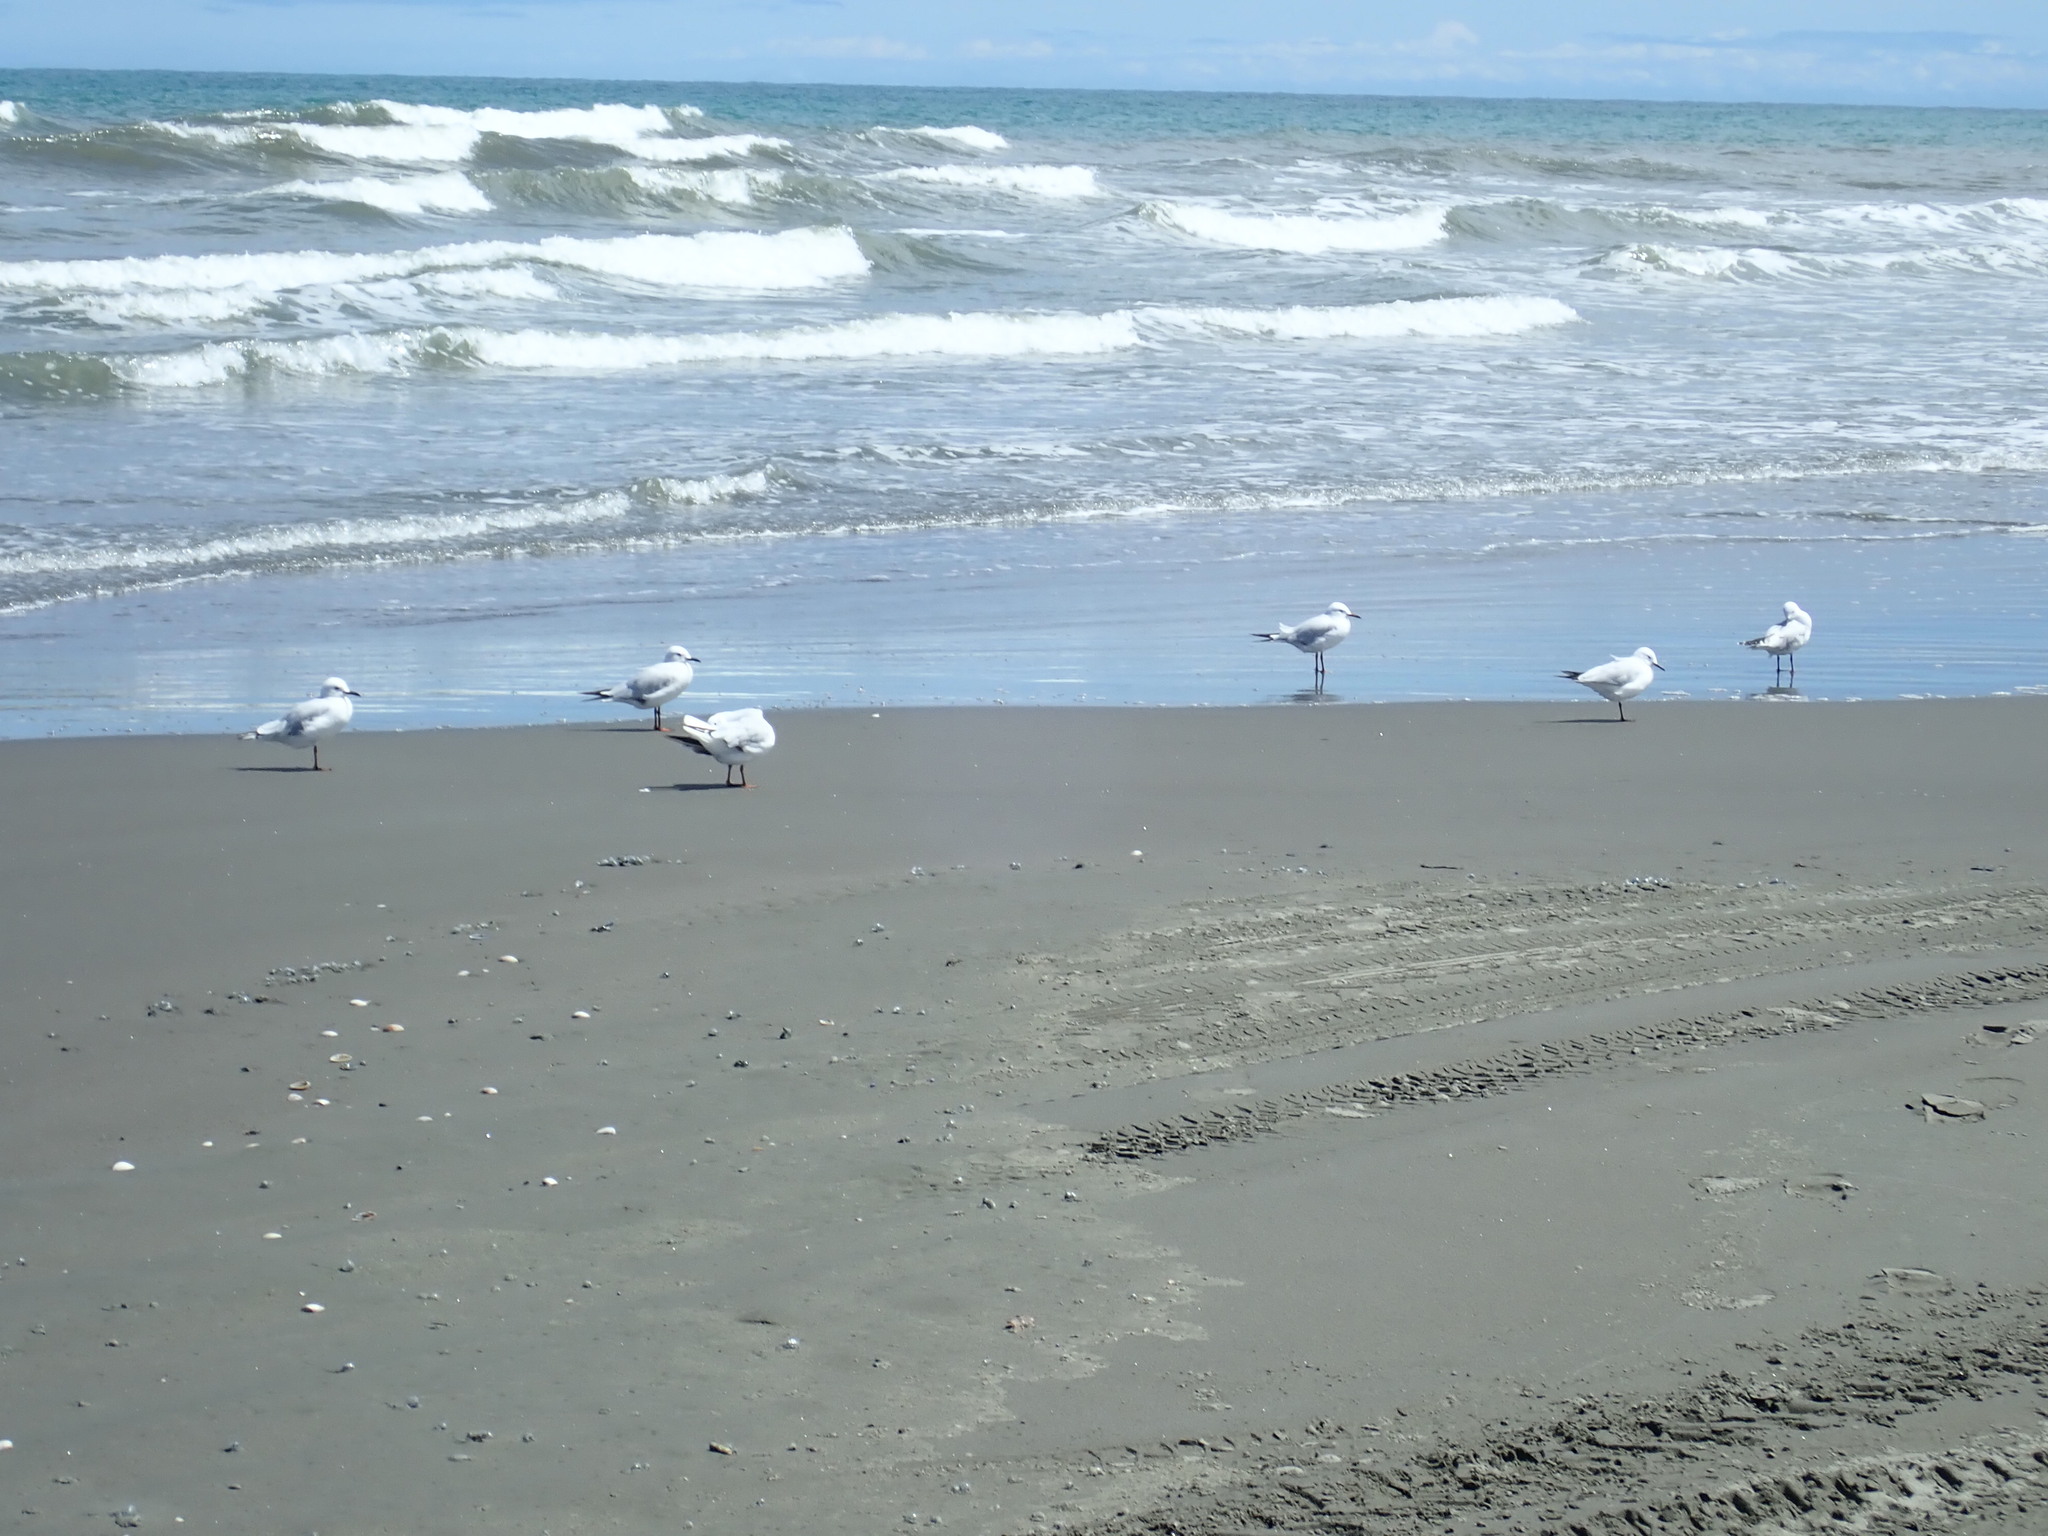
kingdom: Animalia
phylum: Chordata
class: Aves
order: Charadriiformes
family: Laridae
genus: Chroicocephalus
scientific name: Chroicocephalus bulleri
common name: Black-billed gull
